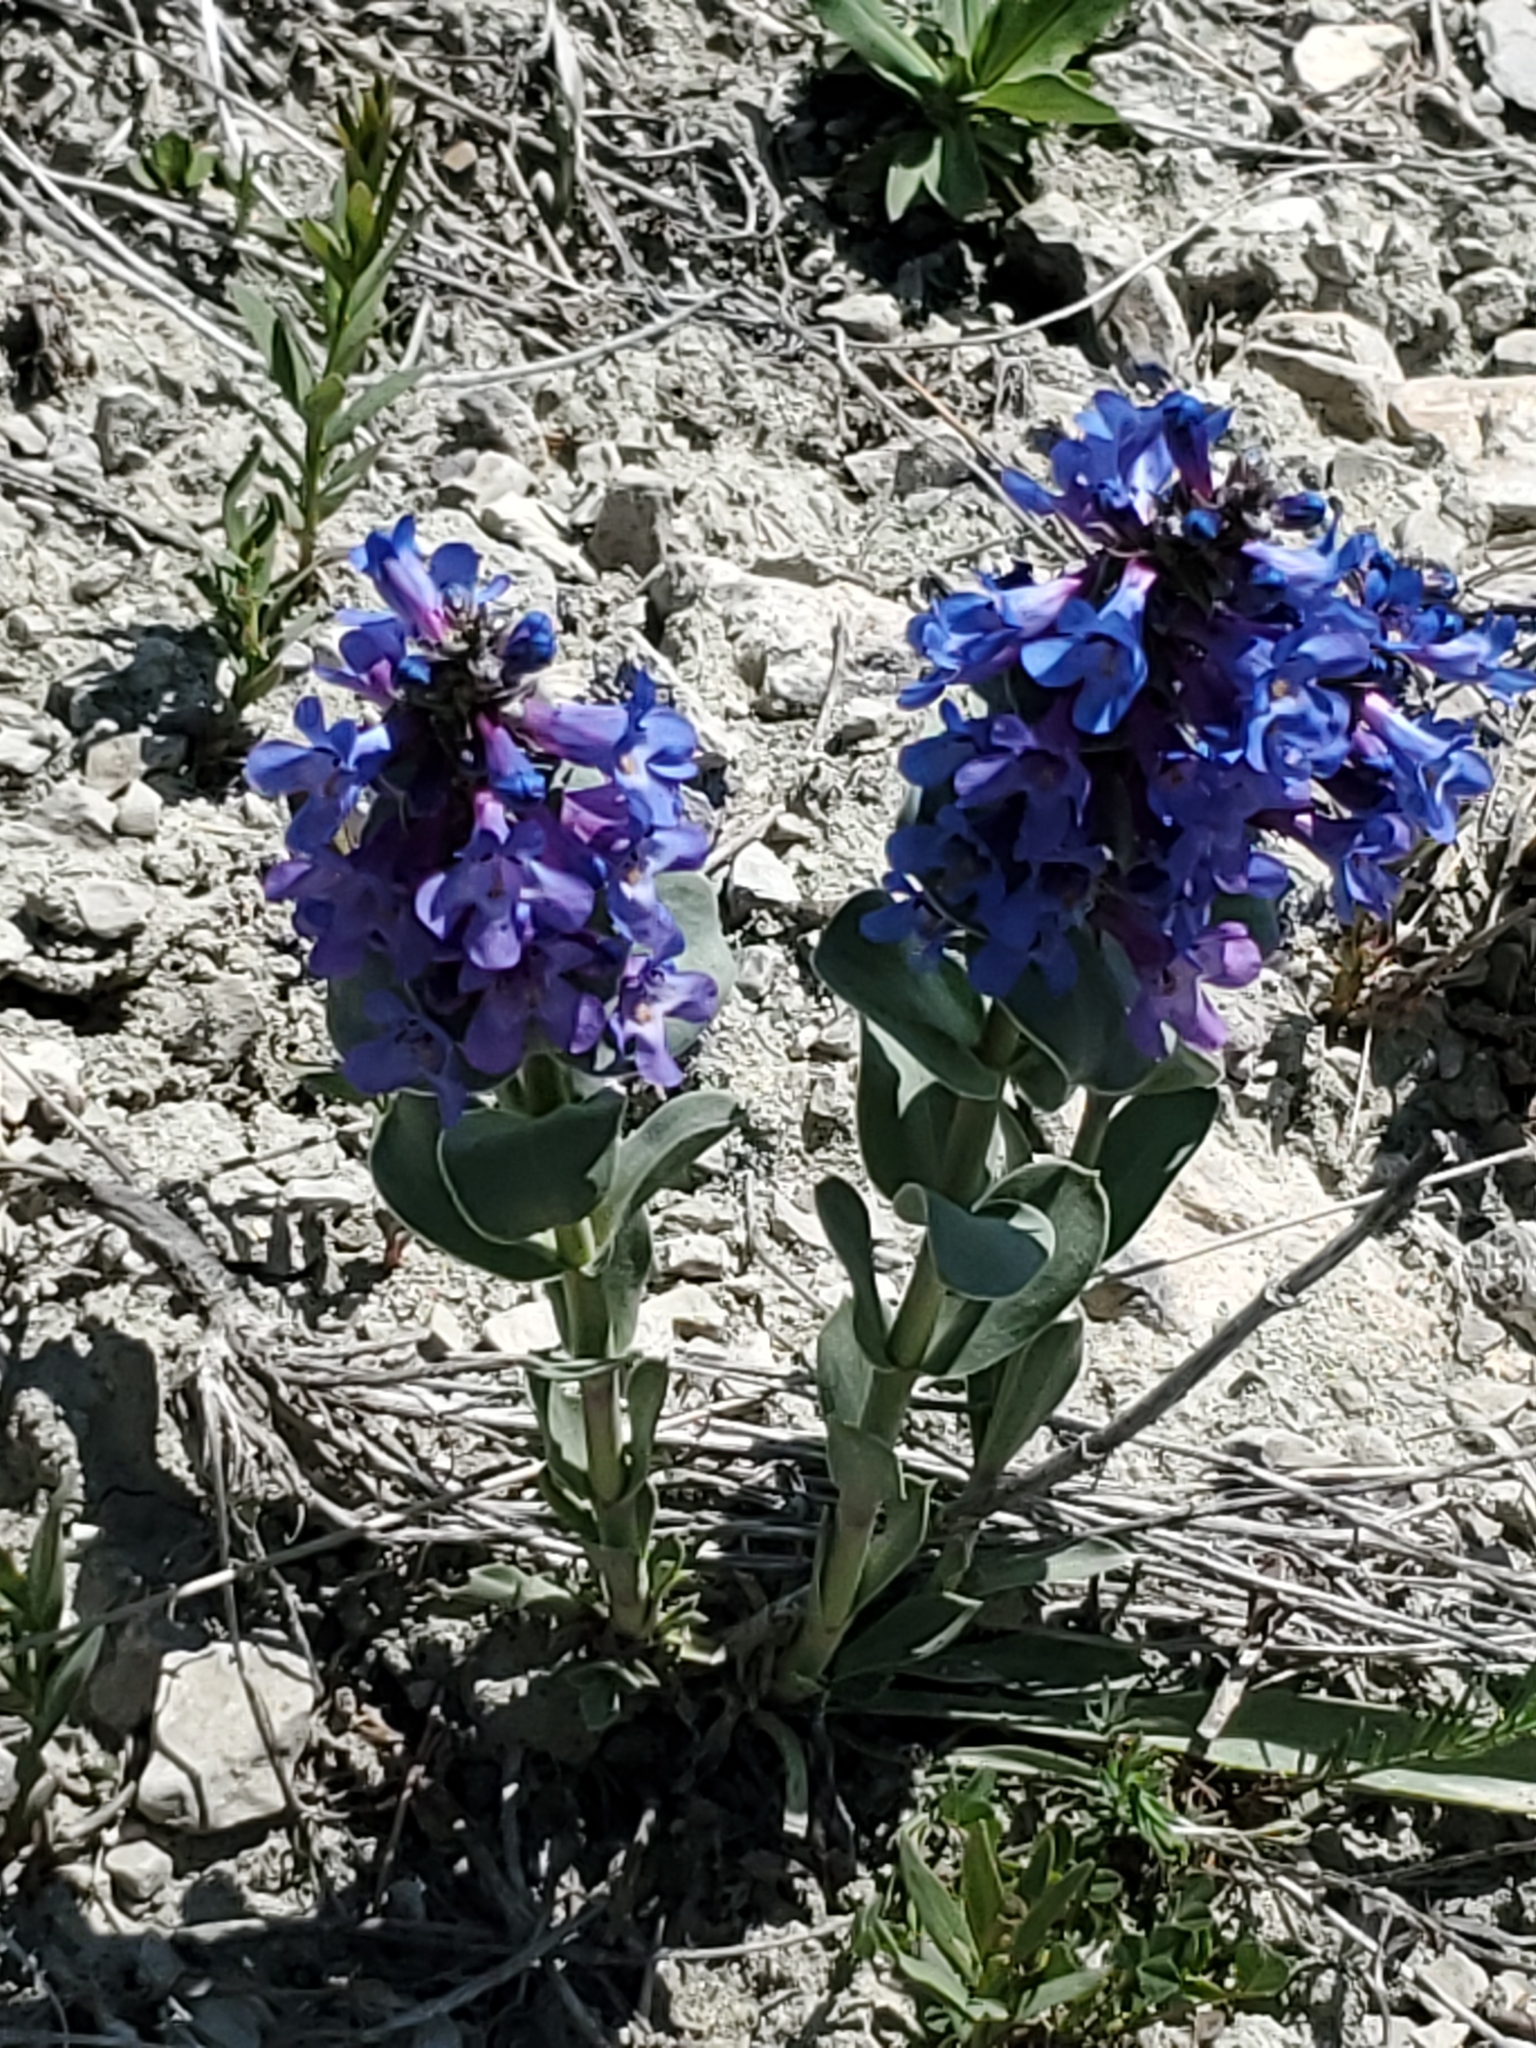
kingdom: Plantae
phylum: Tracheophyta
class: Magnoliopsida
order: Lamiales
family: Plantaginaceae
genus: Penstemon
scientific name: Penstemon nitidus
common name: Shining penstemon
